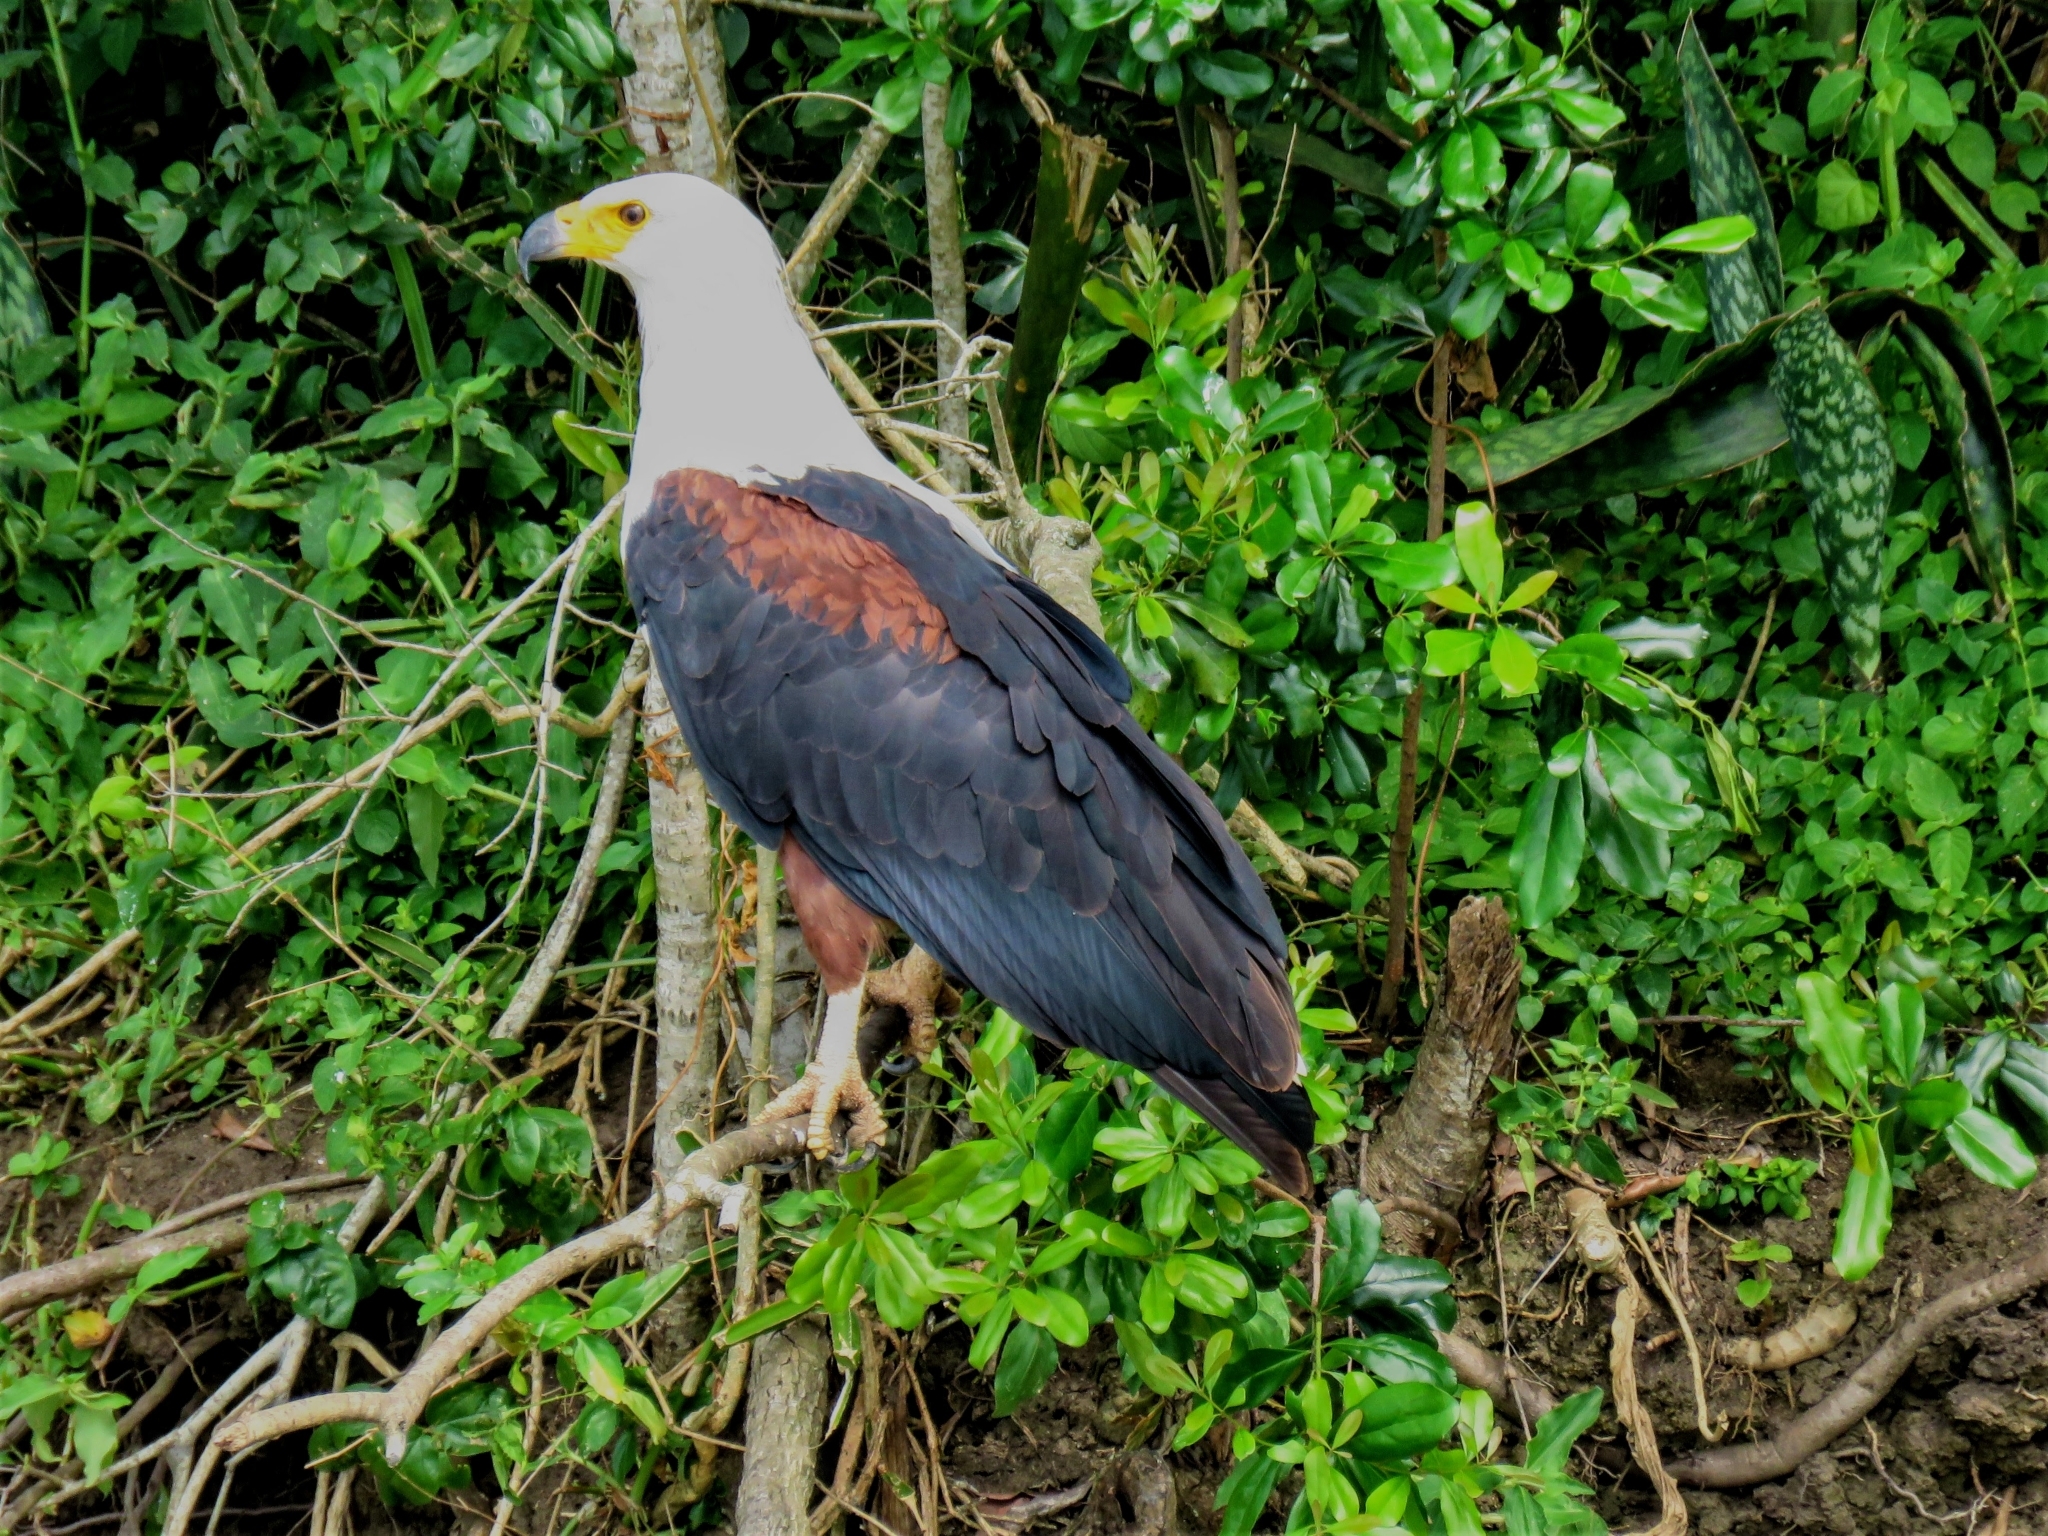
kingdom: Animalia
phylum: Chordata
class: Aves
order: Accipitriformes
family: Accipitridae
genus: Haliaeetus
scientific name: Haliaeetus vocifer
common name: African fish eagle
